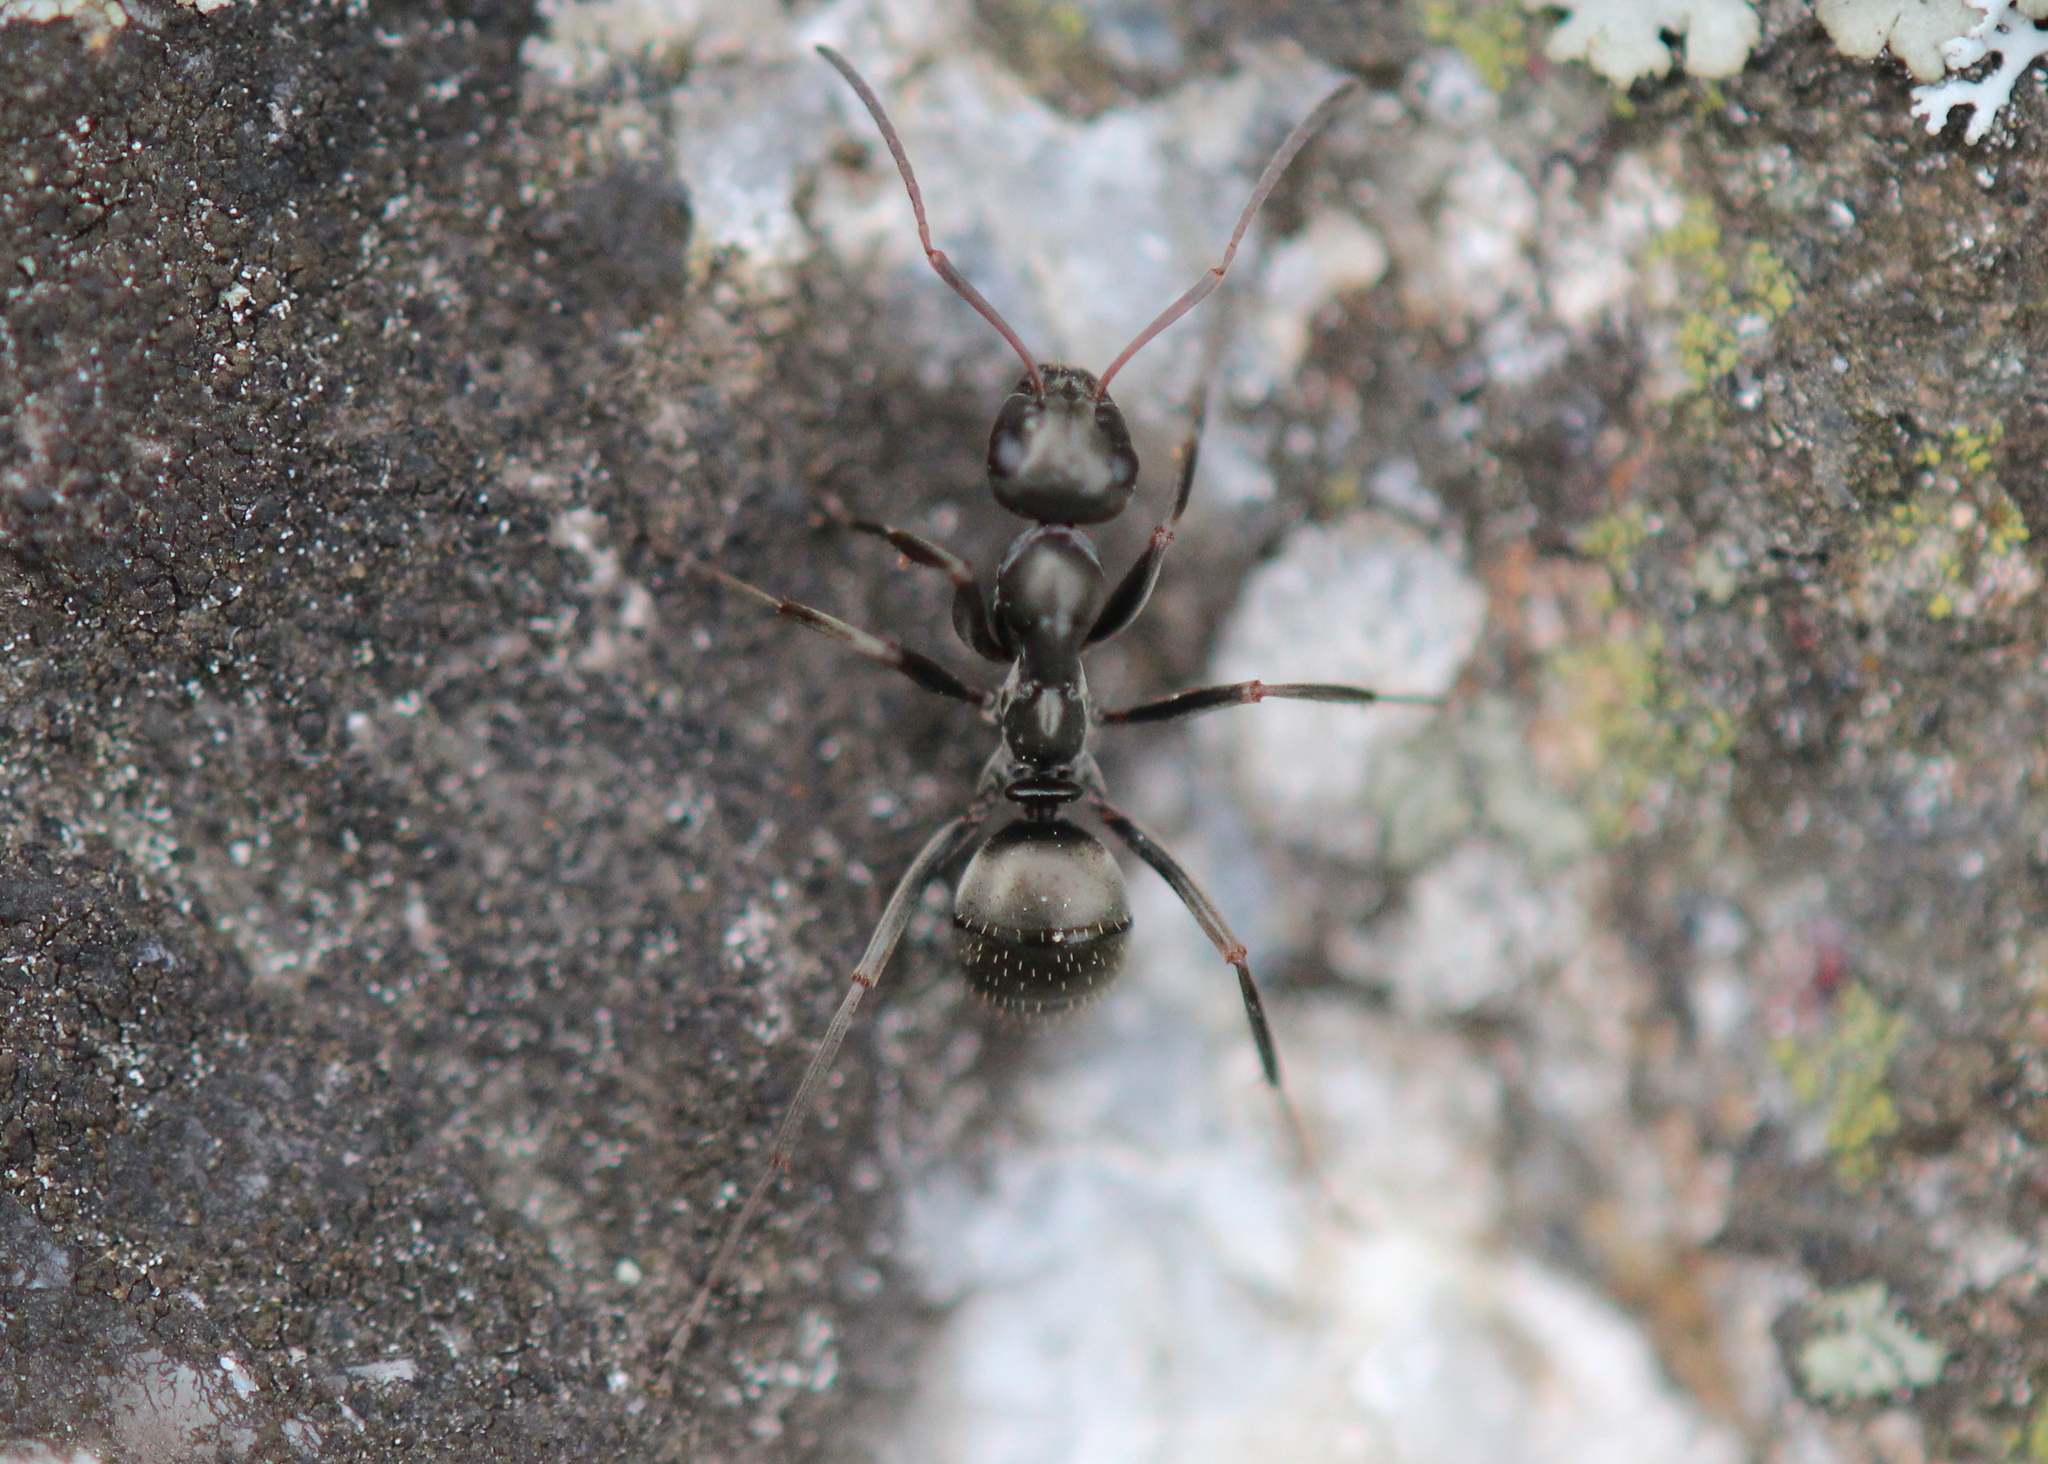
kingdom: Animalia
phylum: Arthropoda
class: Insecta
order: Hymenoptera
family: Formicidae
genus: Formica
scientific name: Formica
